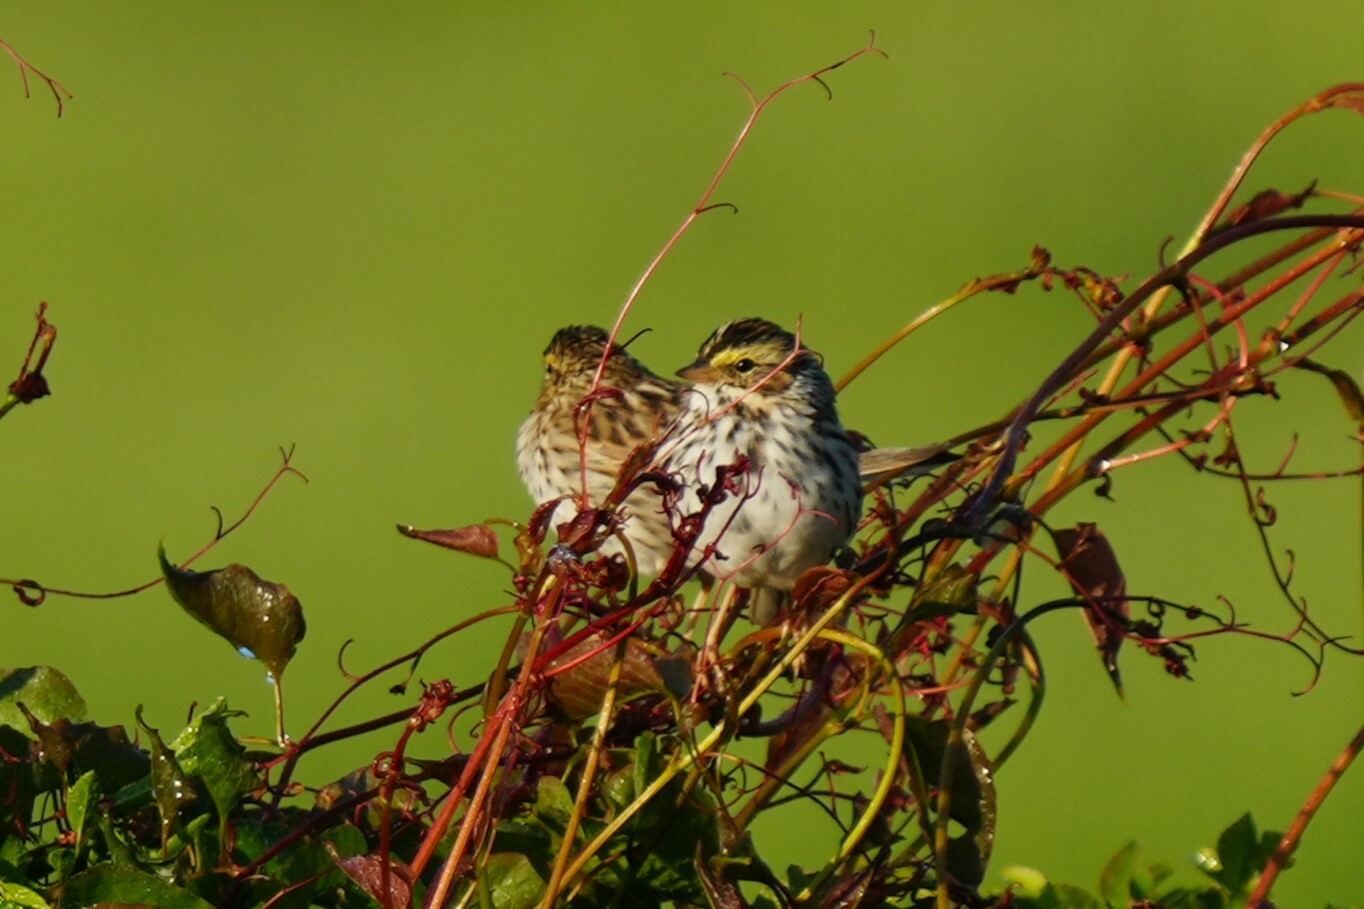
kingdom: Animalia
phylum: Chordata
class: Aves
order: Passeriformes
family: Passerellidae
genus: Passerculus
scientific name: Passerculus sandwichensis
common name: Savannah sparrow
